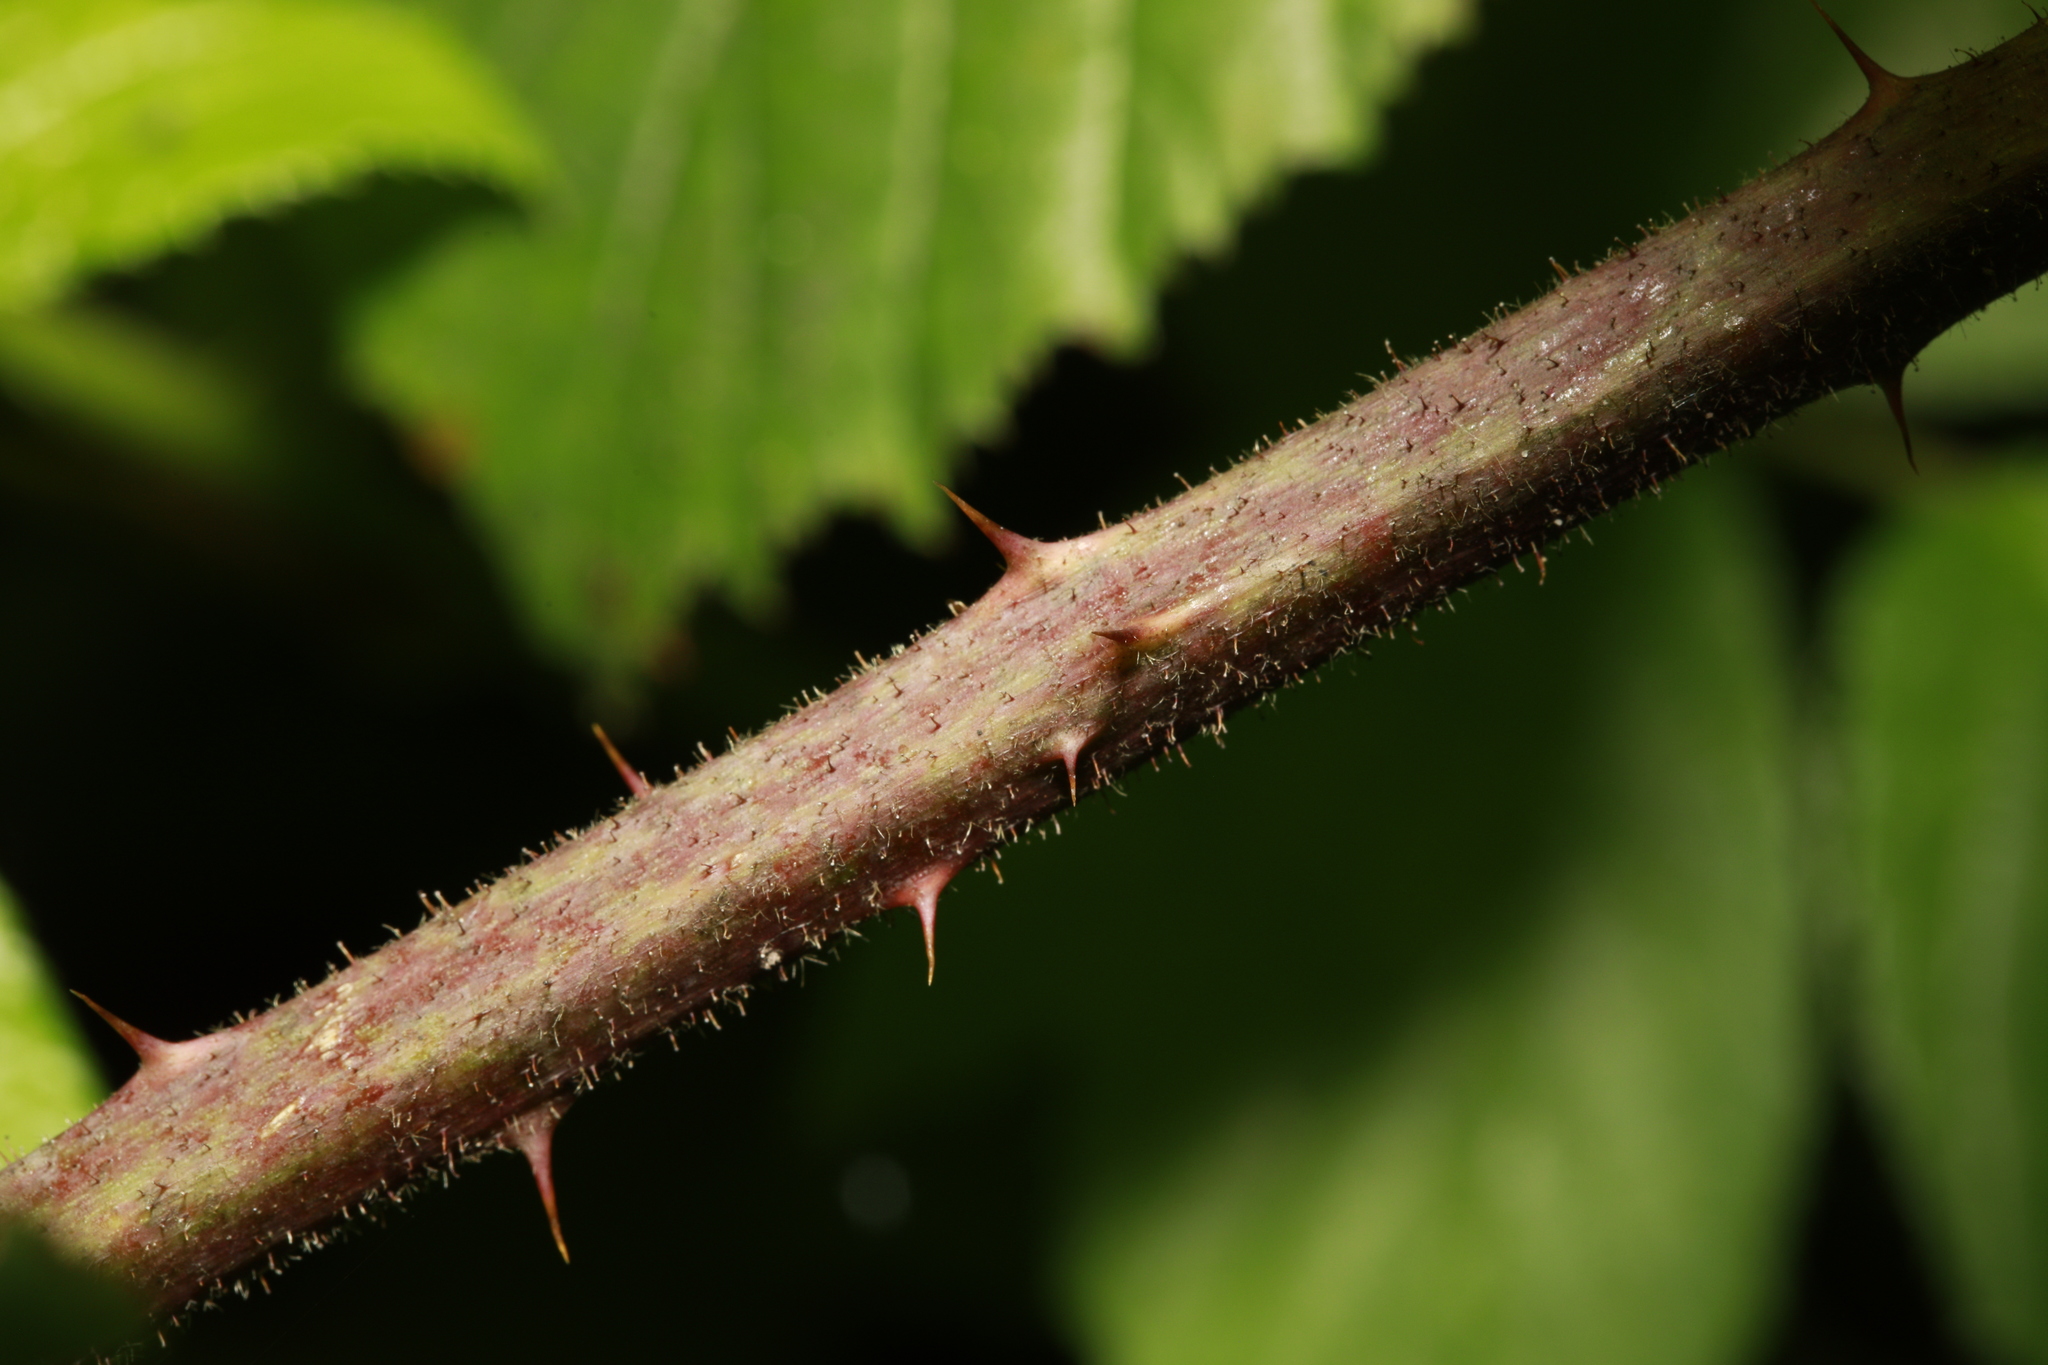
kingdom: Plantae
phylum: Tracheophyta
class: Magnoliopsida
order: Rosales
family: Rosaceae
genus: Rubus
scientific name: Rubus rufescens
